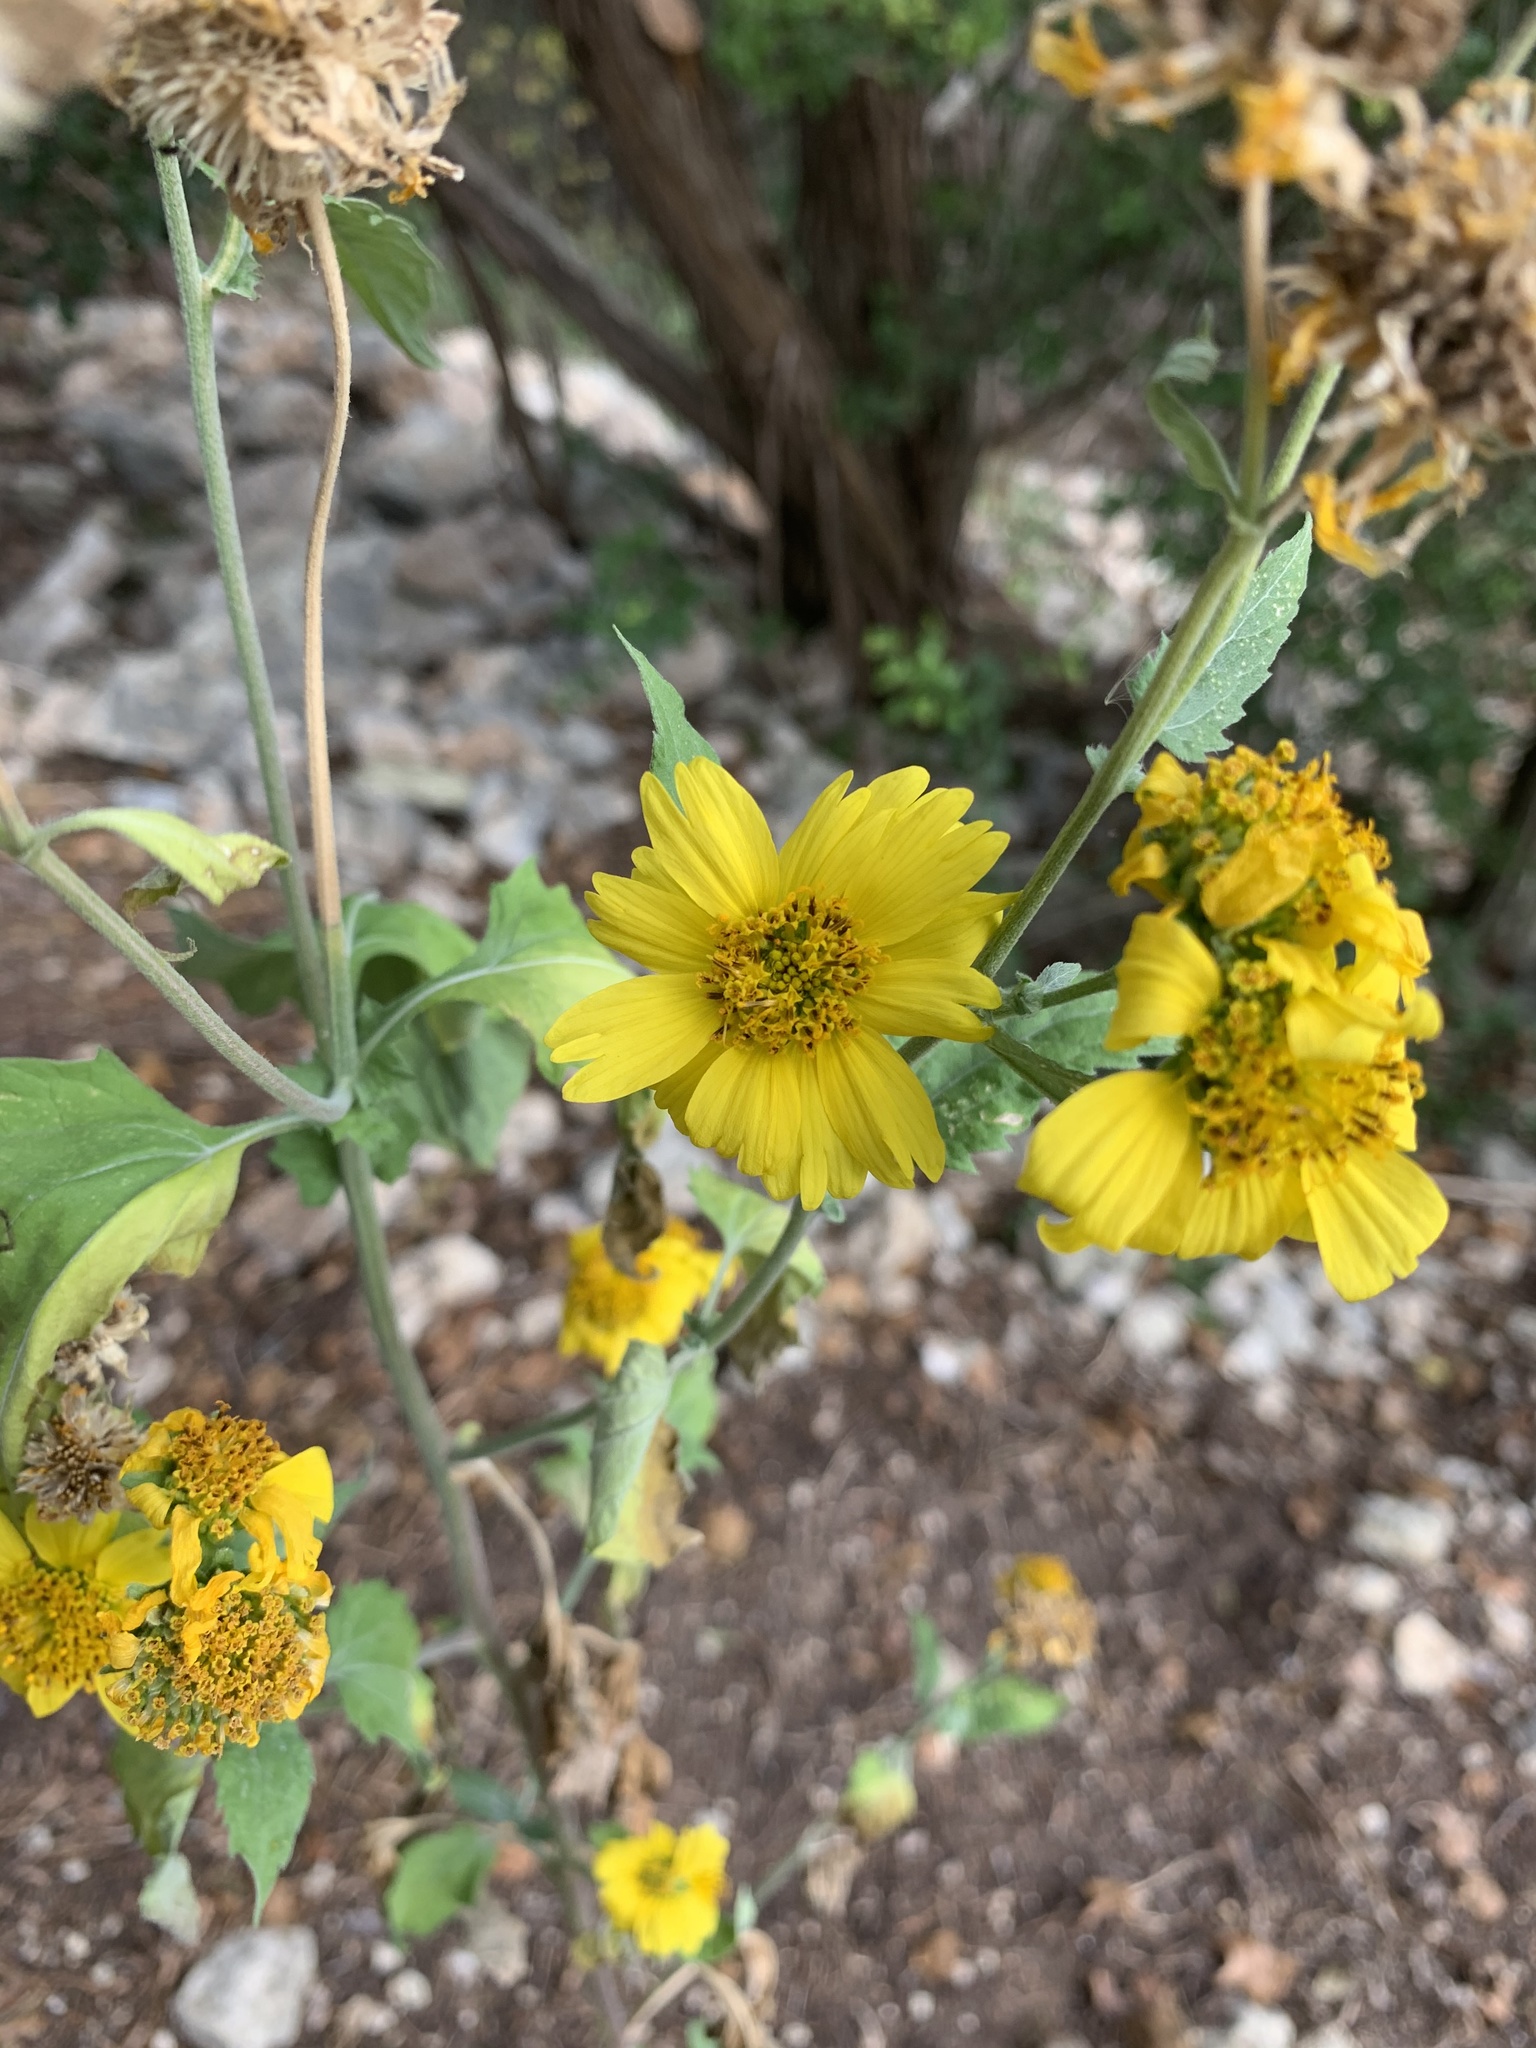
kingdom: Plantae
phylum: Tracheophyta
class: Magnoliopsida
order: Asterales
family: Asteraceae
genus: Verbesina
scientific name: Verbesina encelioides
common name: Golden crownbeard
